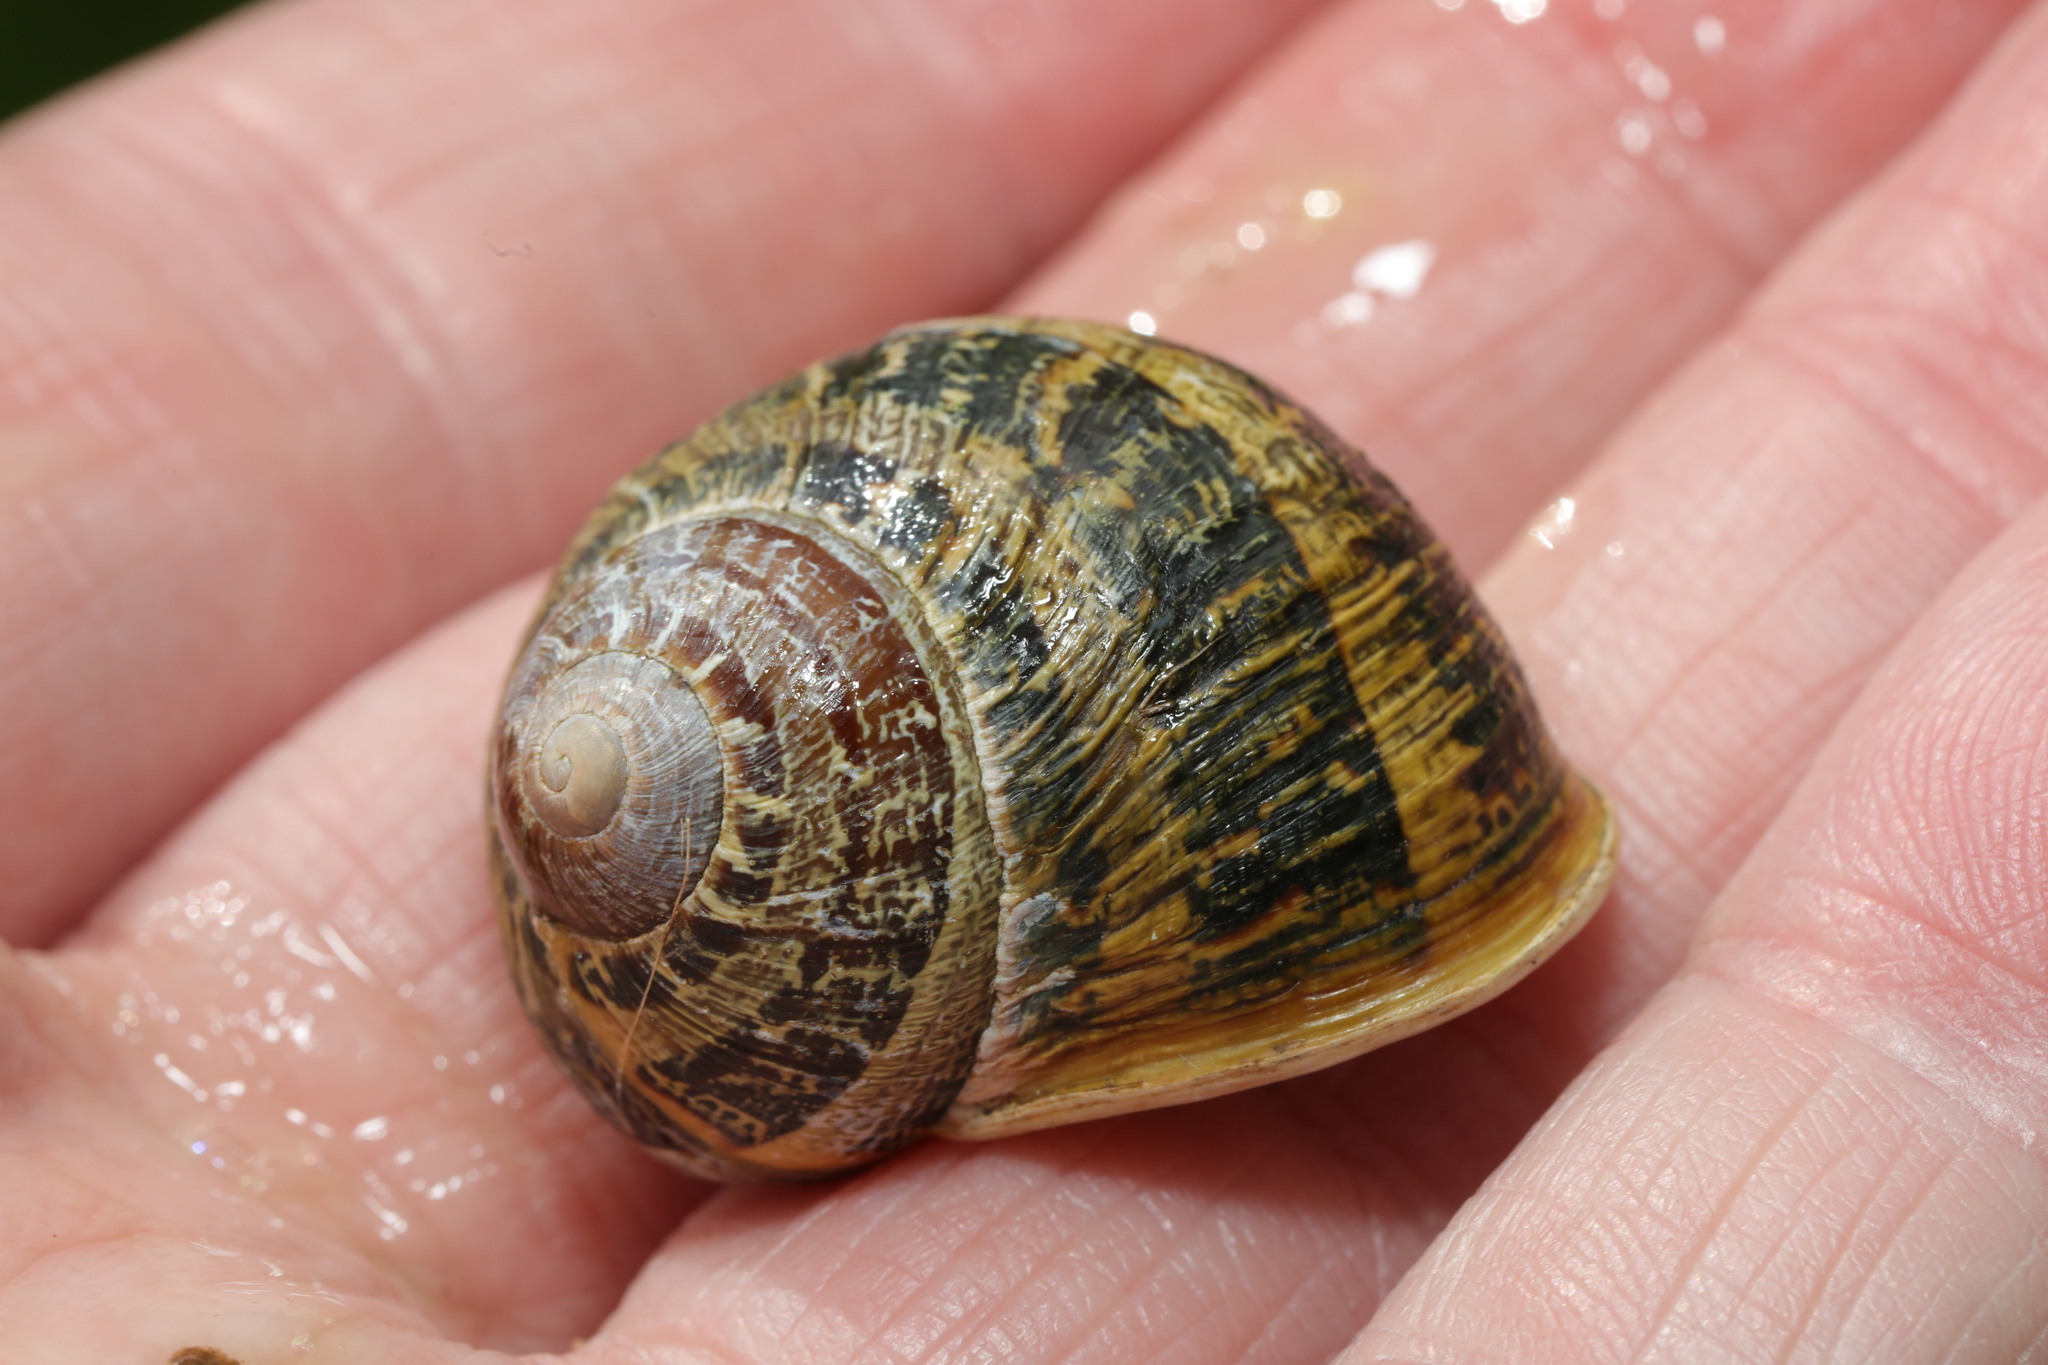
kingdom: Animalia
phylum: Mollusca
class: Gastropoda
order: Stylommatophora
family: Helicidae
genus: Cornu
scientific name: Cornu aspersum
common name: Brown garden snail
